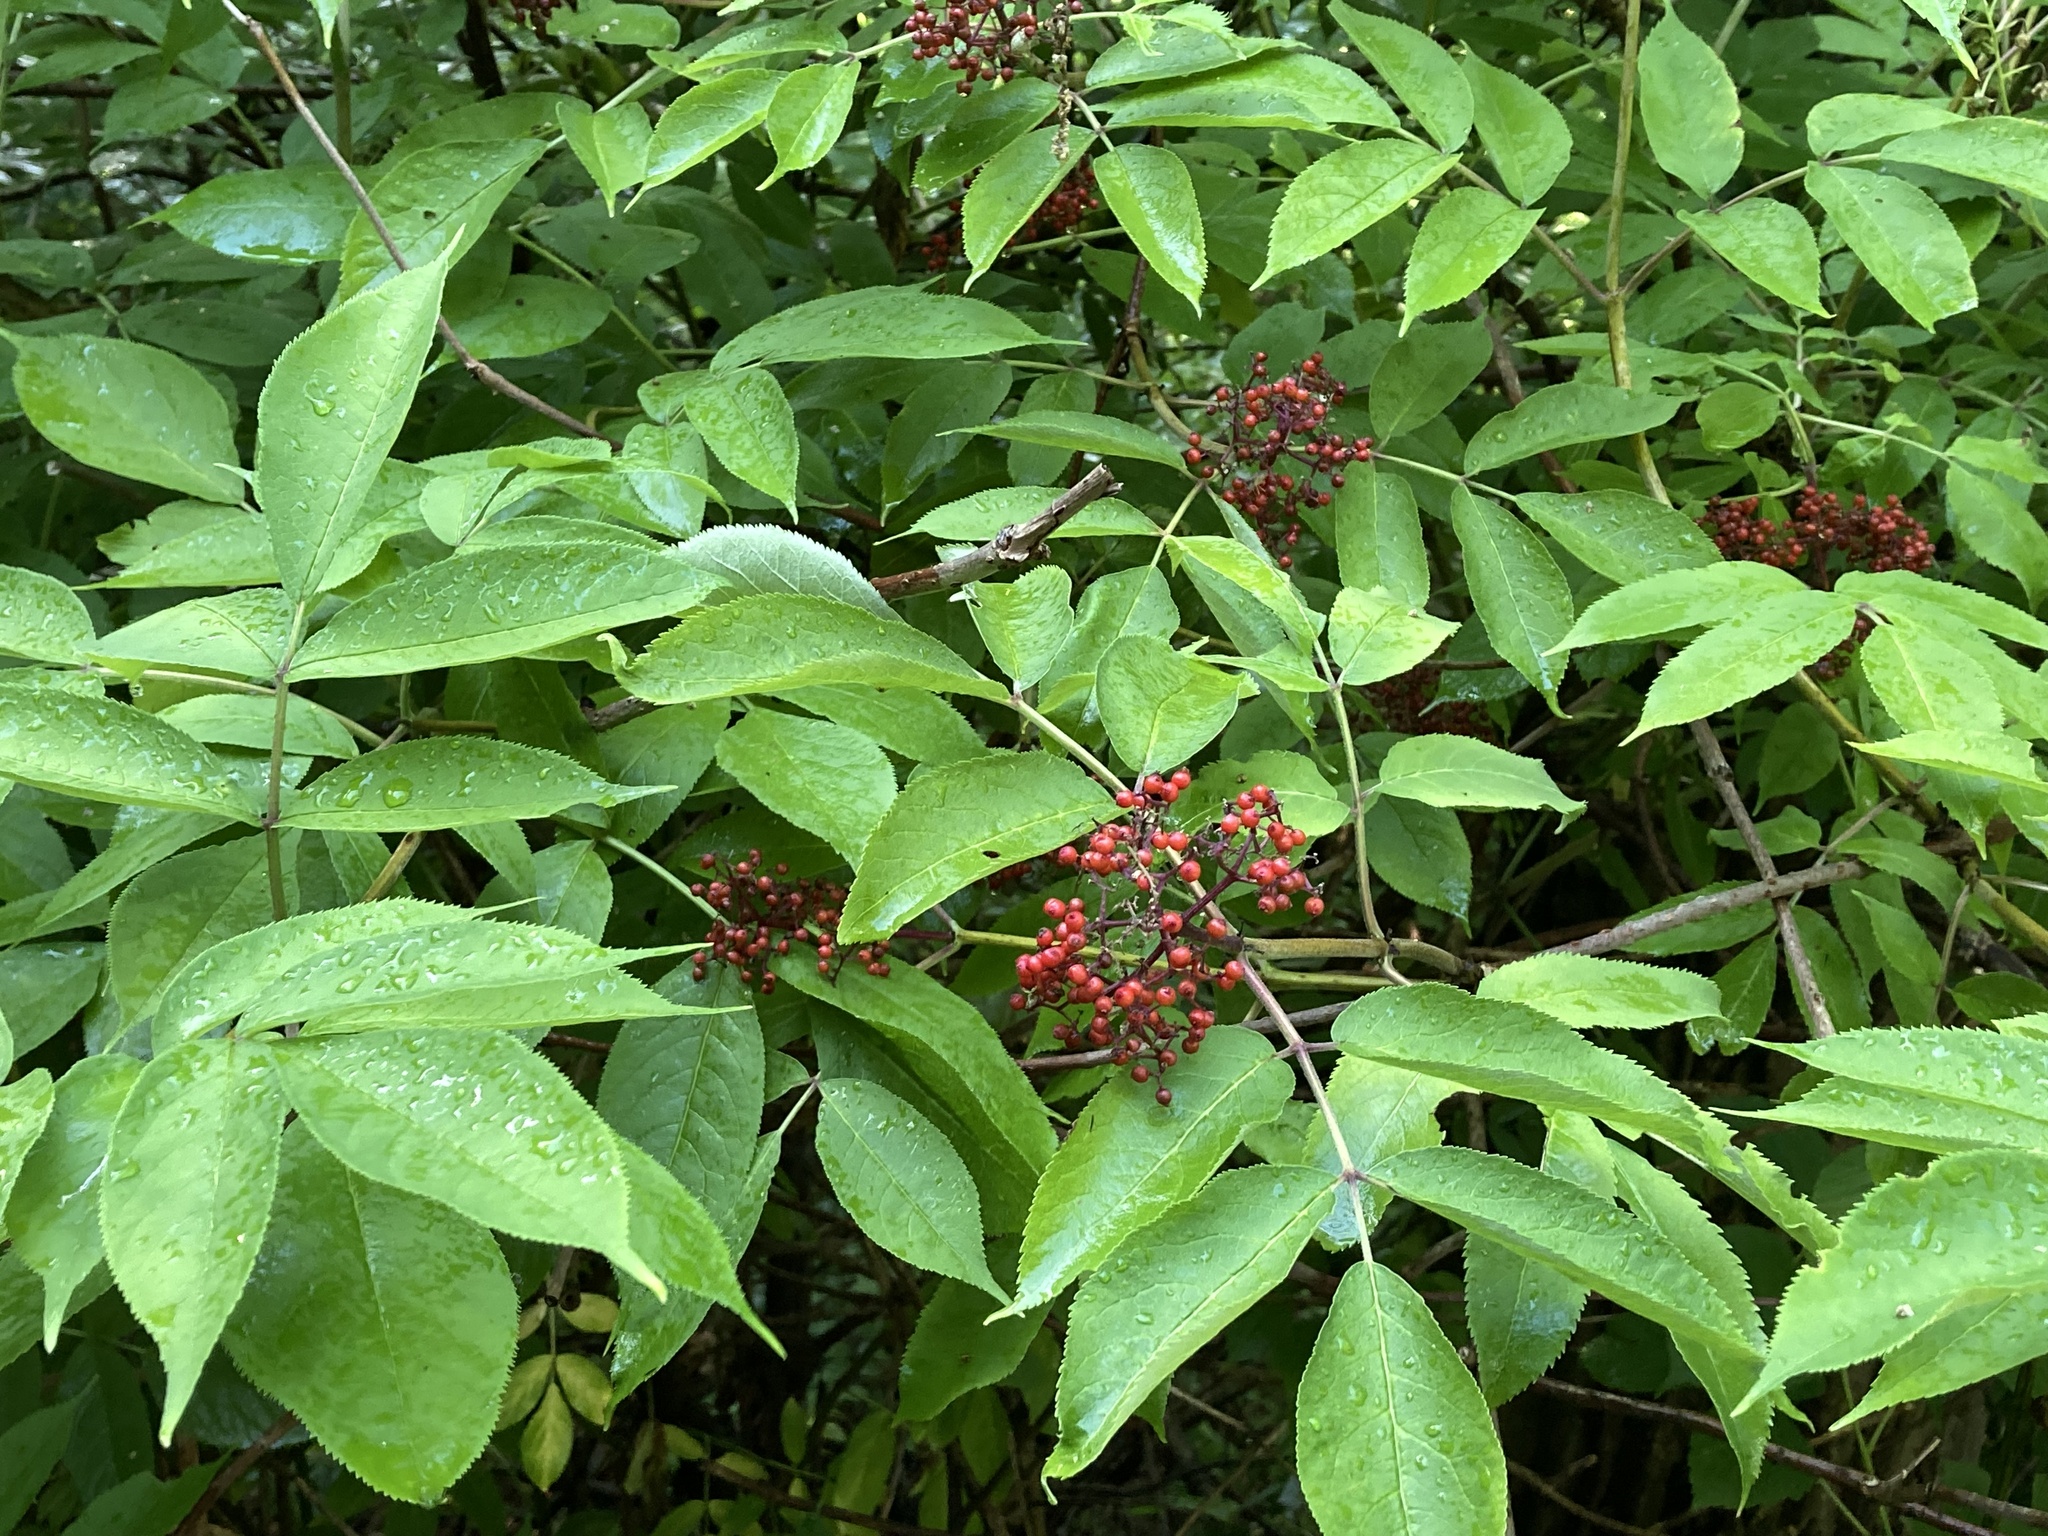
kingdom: Plantae
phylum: Tracheophyta
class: Magnoliopsida
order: Dipsacales
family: Viburnaceae
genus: Sambucus
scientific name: Sambucus racemosa
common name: Red-berried elder
